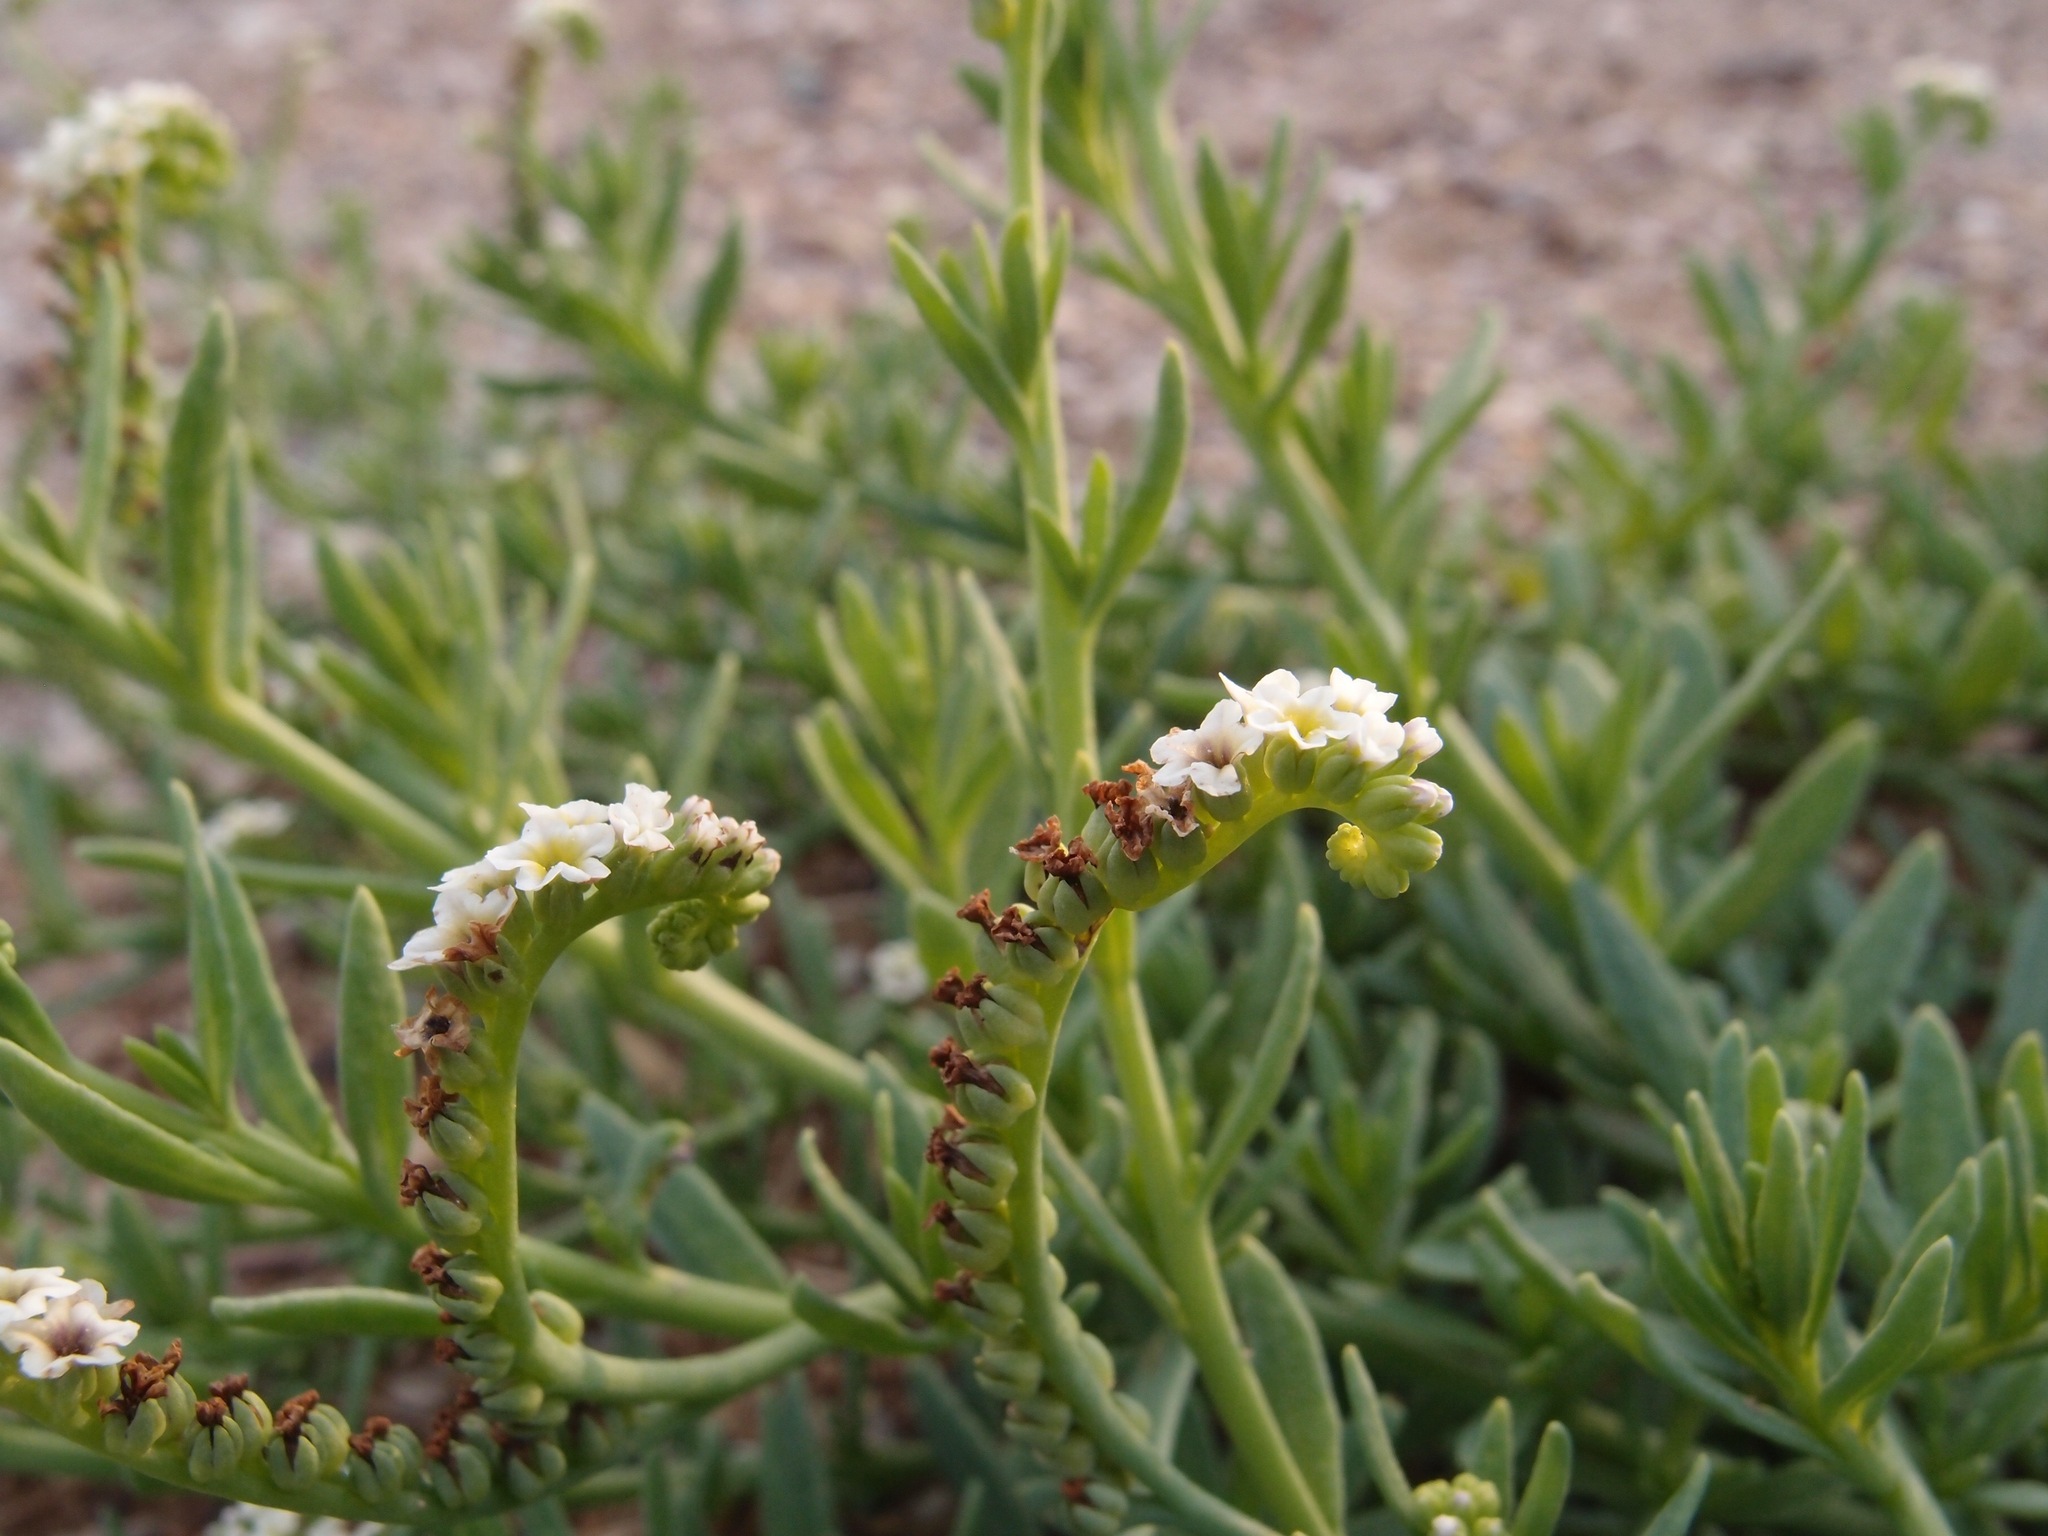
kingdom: Plantae
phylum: Tracheophyta
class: Magnoliopsida
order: Boraginales
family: Heliotropiaceae
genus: Heliotropium
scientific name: Heliotropium curassavicum
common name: Seaside heliotrope
